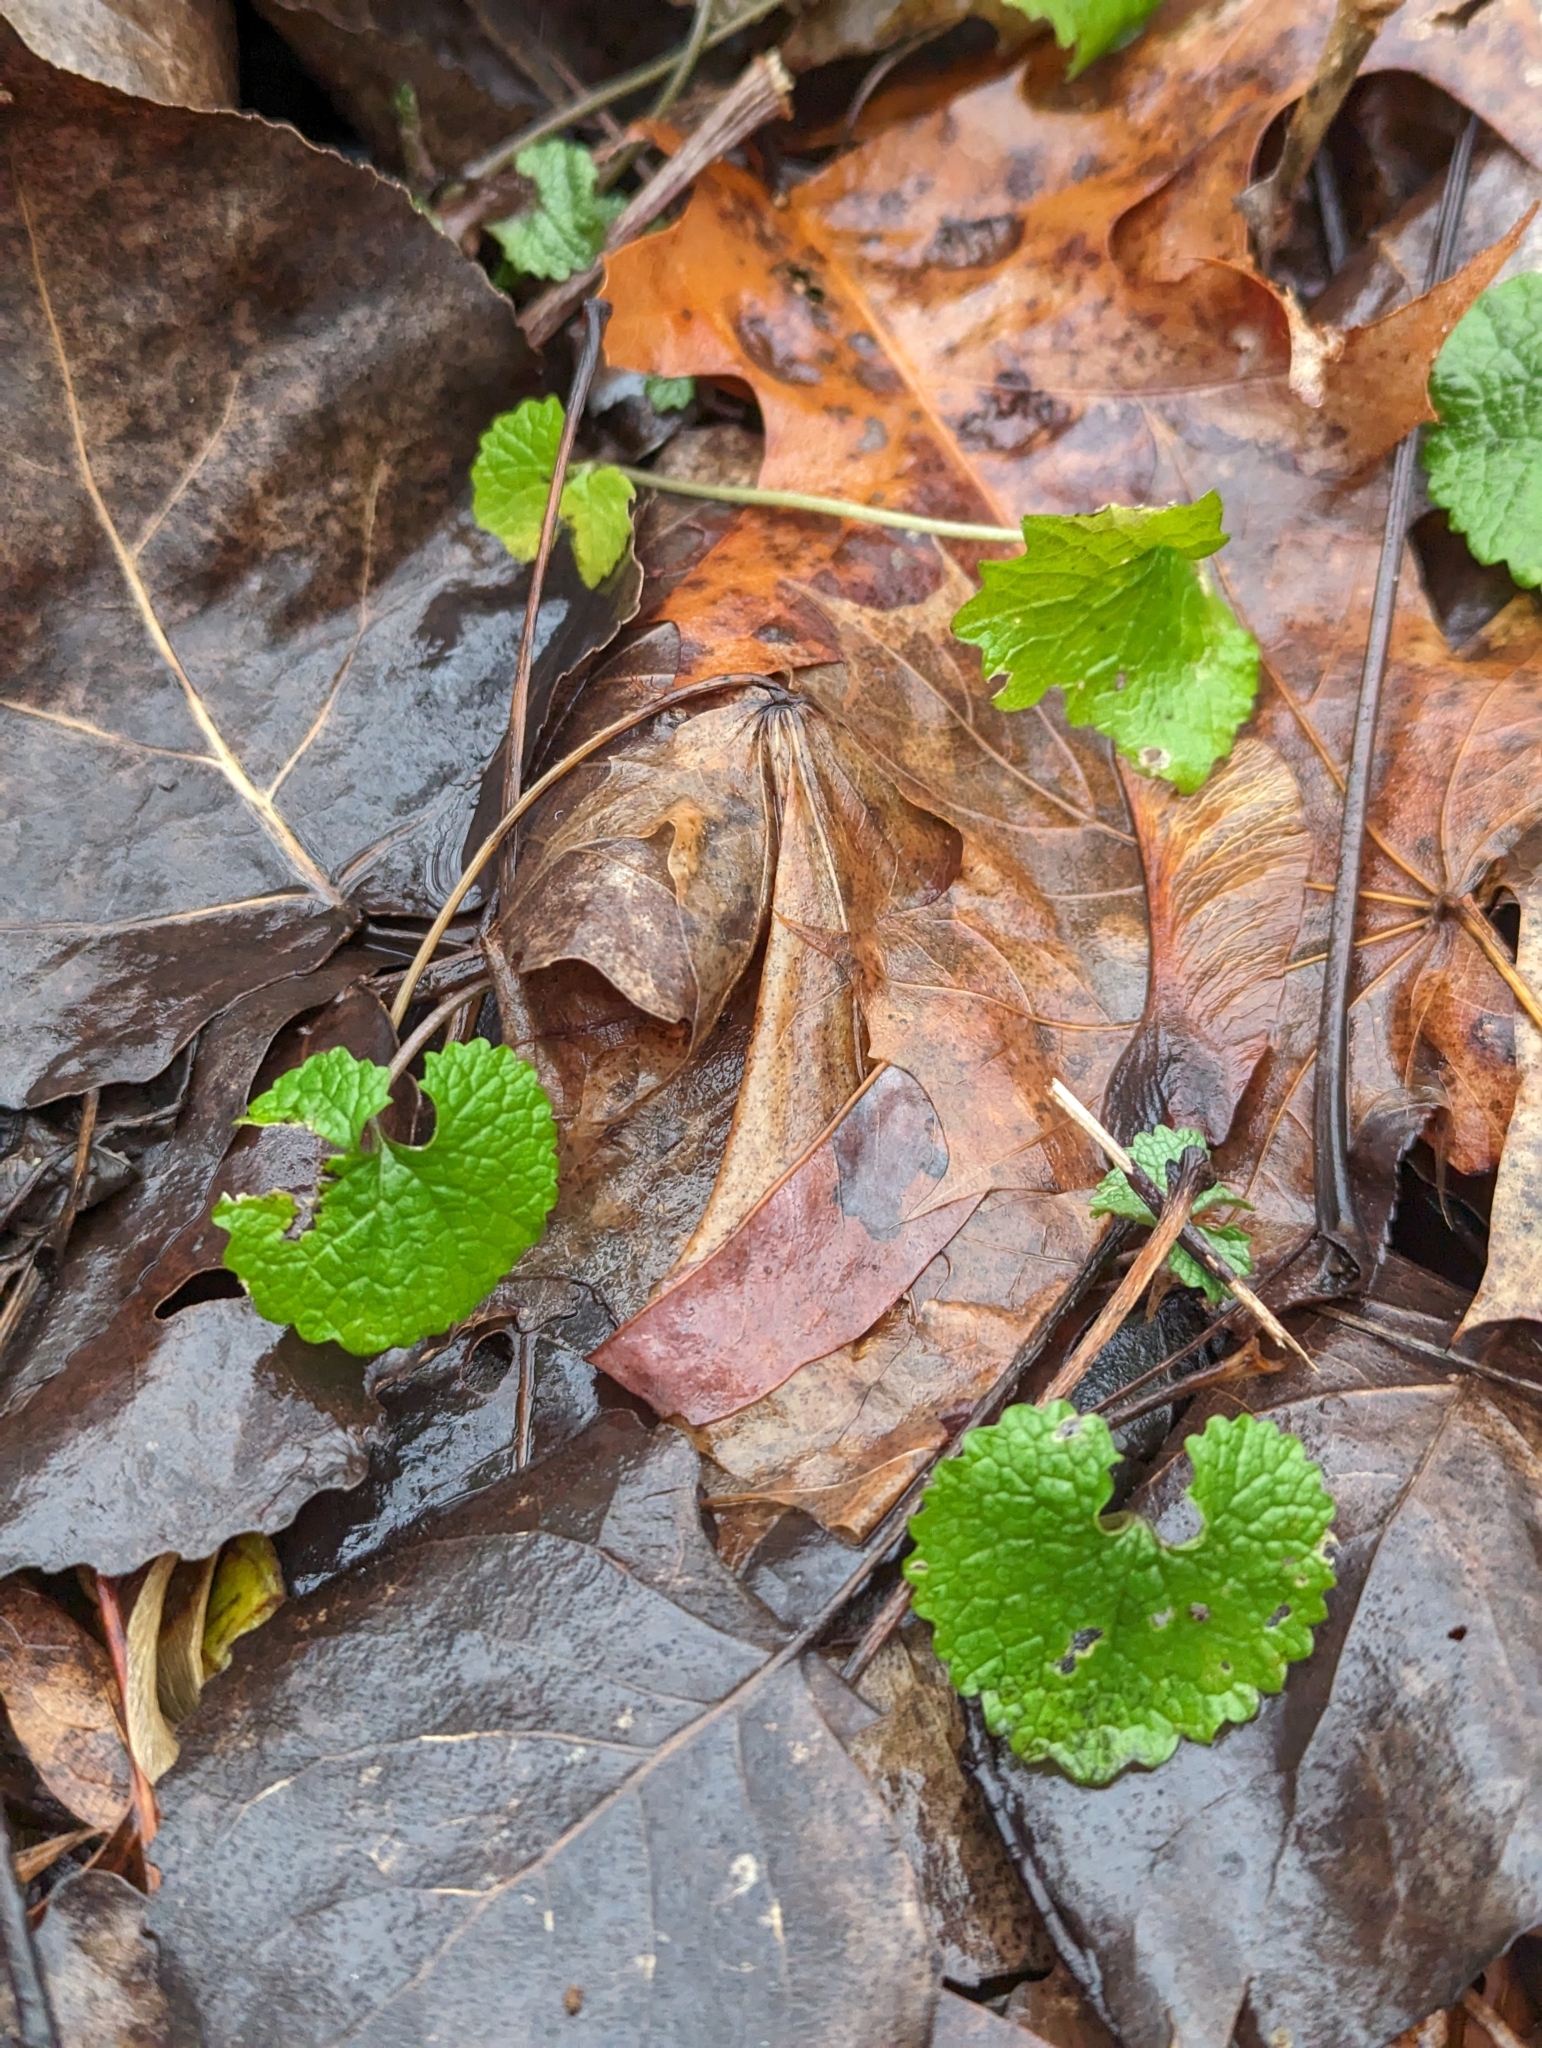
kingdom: Plantae
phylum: Tracheophyta
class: Magnoliopsida
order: Brassicales
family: Brassicaceae
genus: Alliaria
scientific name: Alliaria petiolata
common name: Garlic mustard
